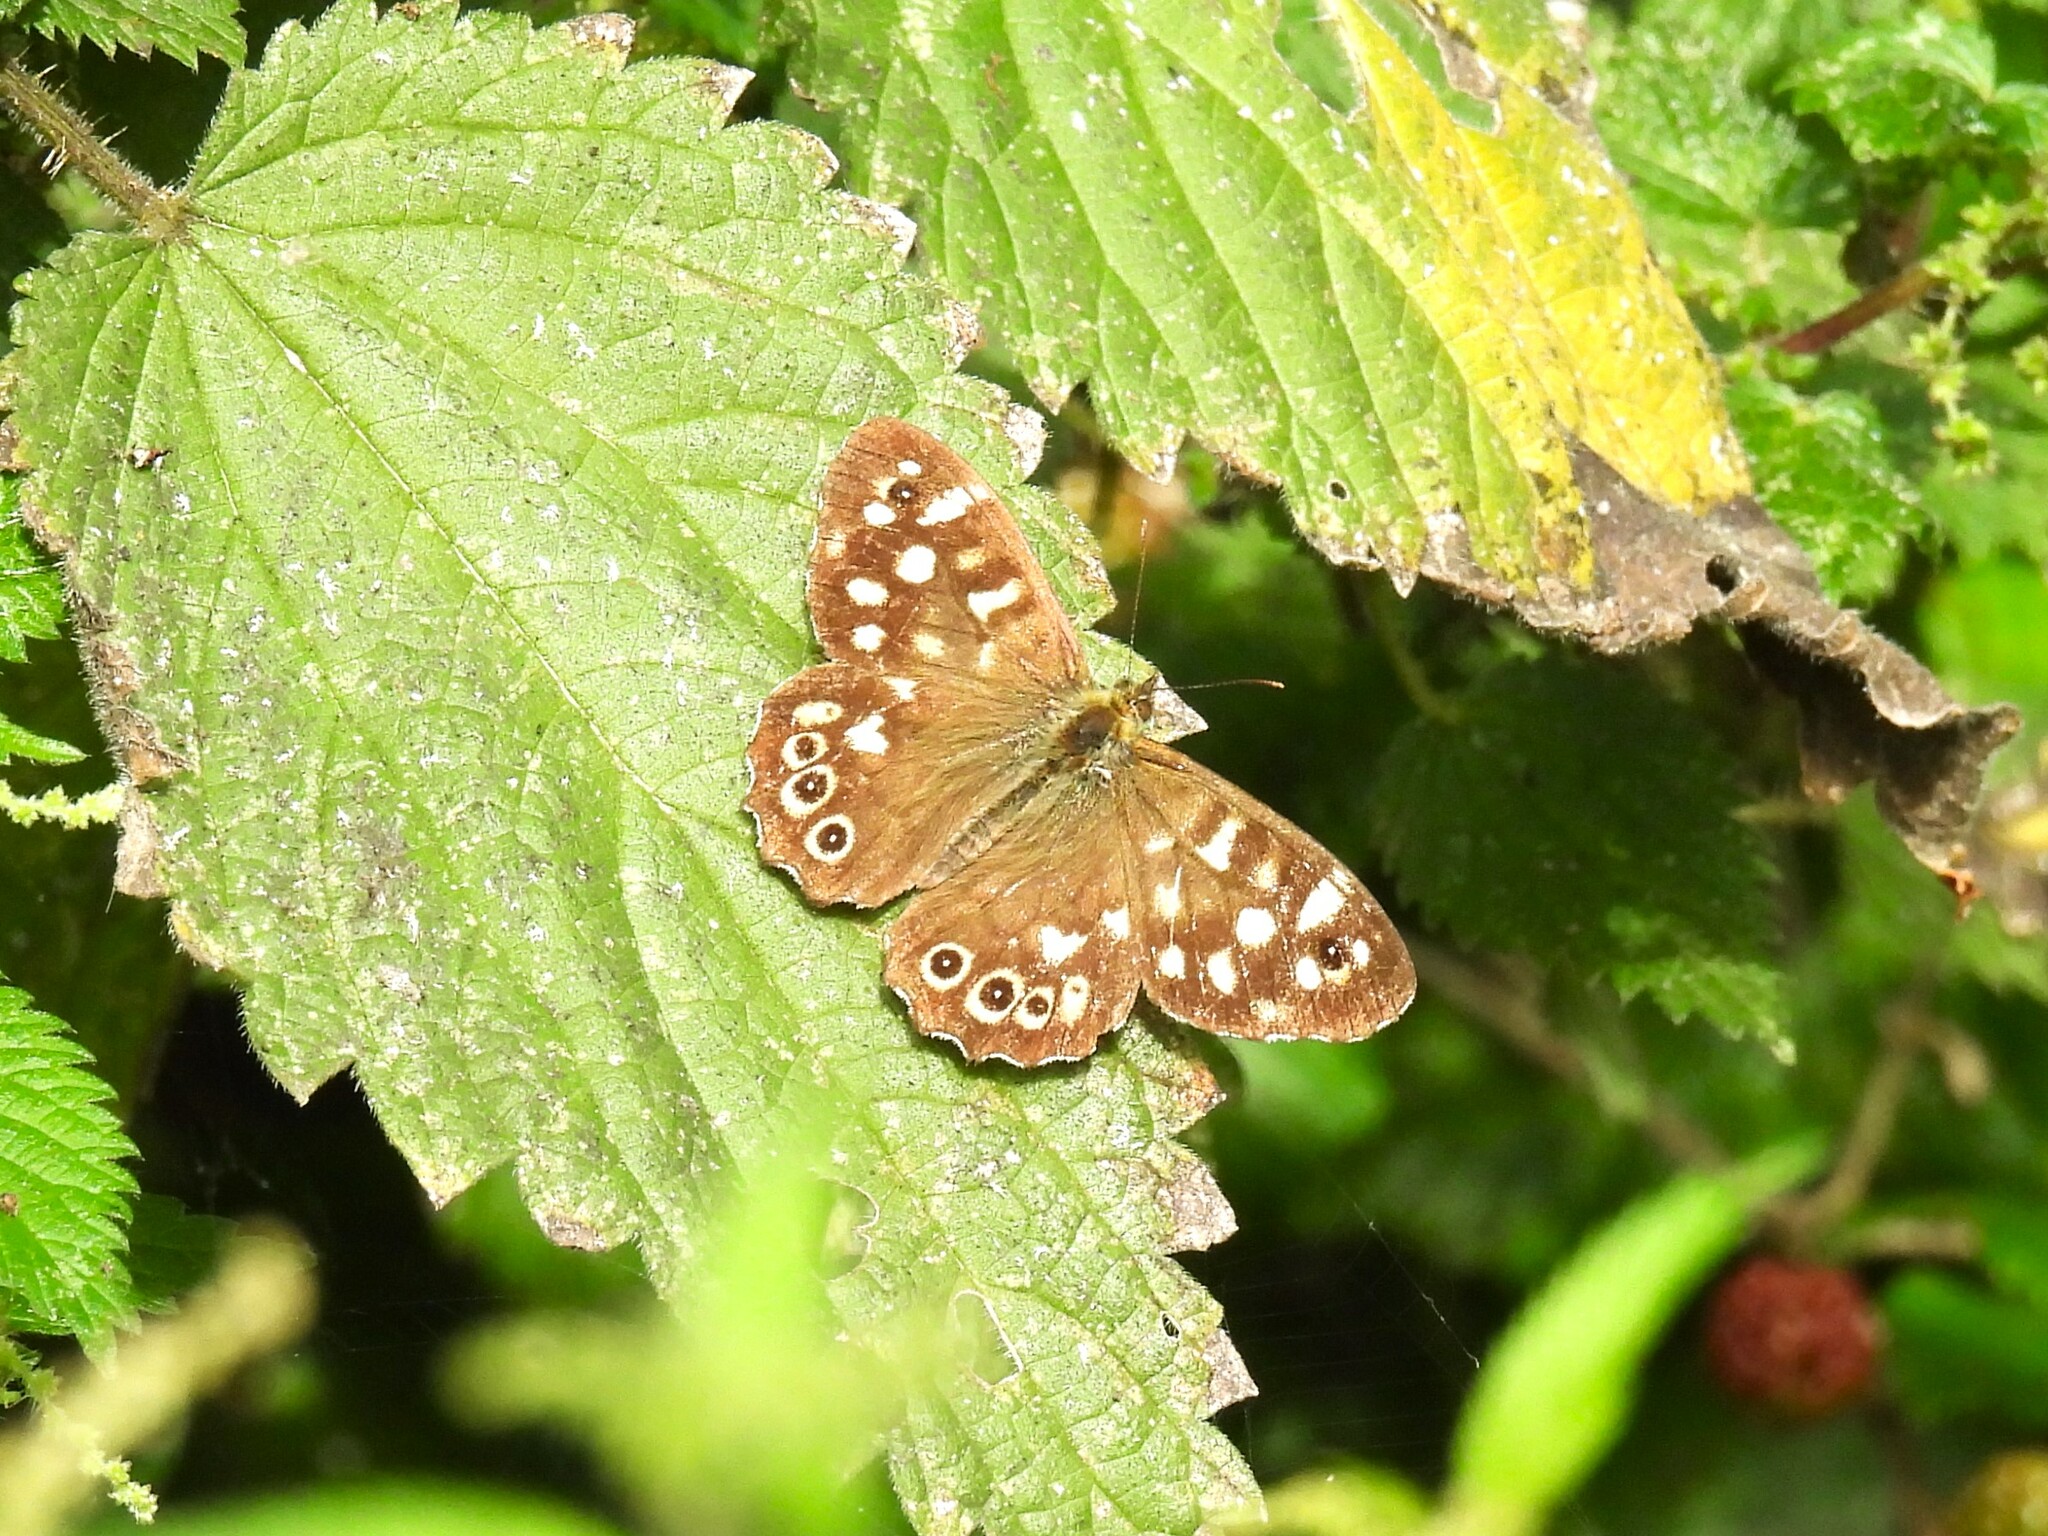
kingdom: Animalia
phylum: Arthropoda
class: Insecta
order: Lepidoptera
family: Nymphalidae
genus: Pararge
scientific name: Pararge aegeria
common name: Speckled wood
